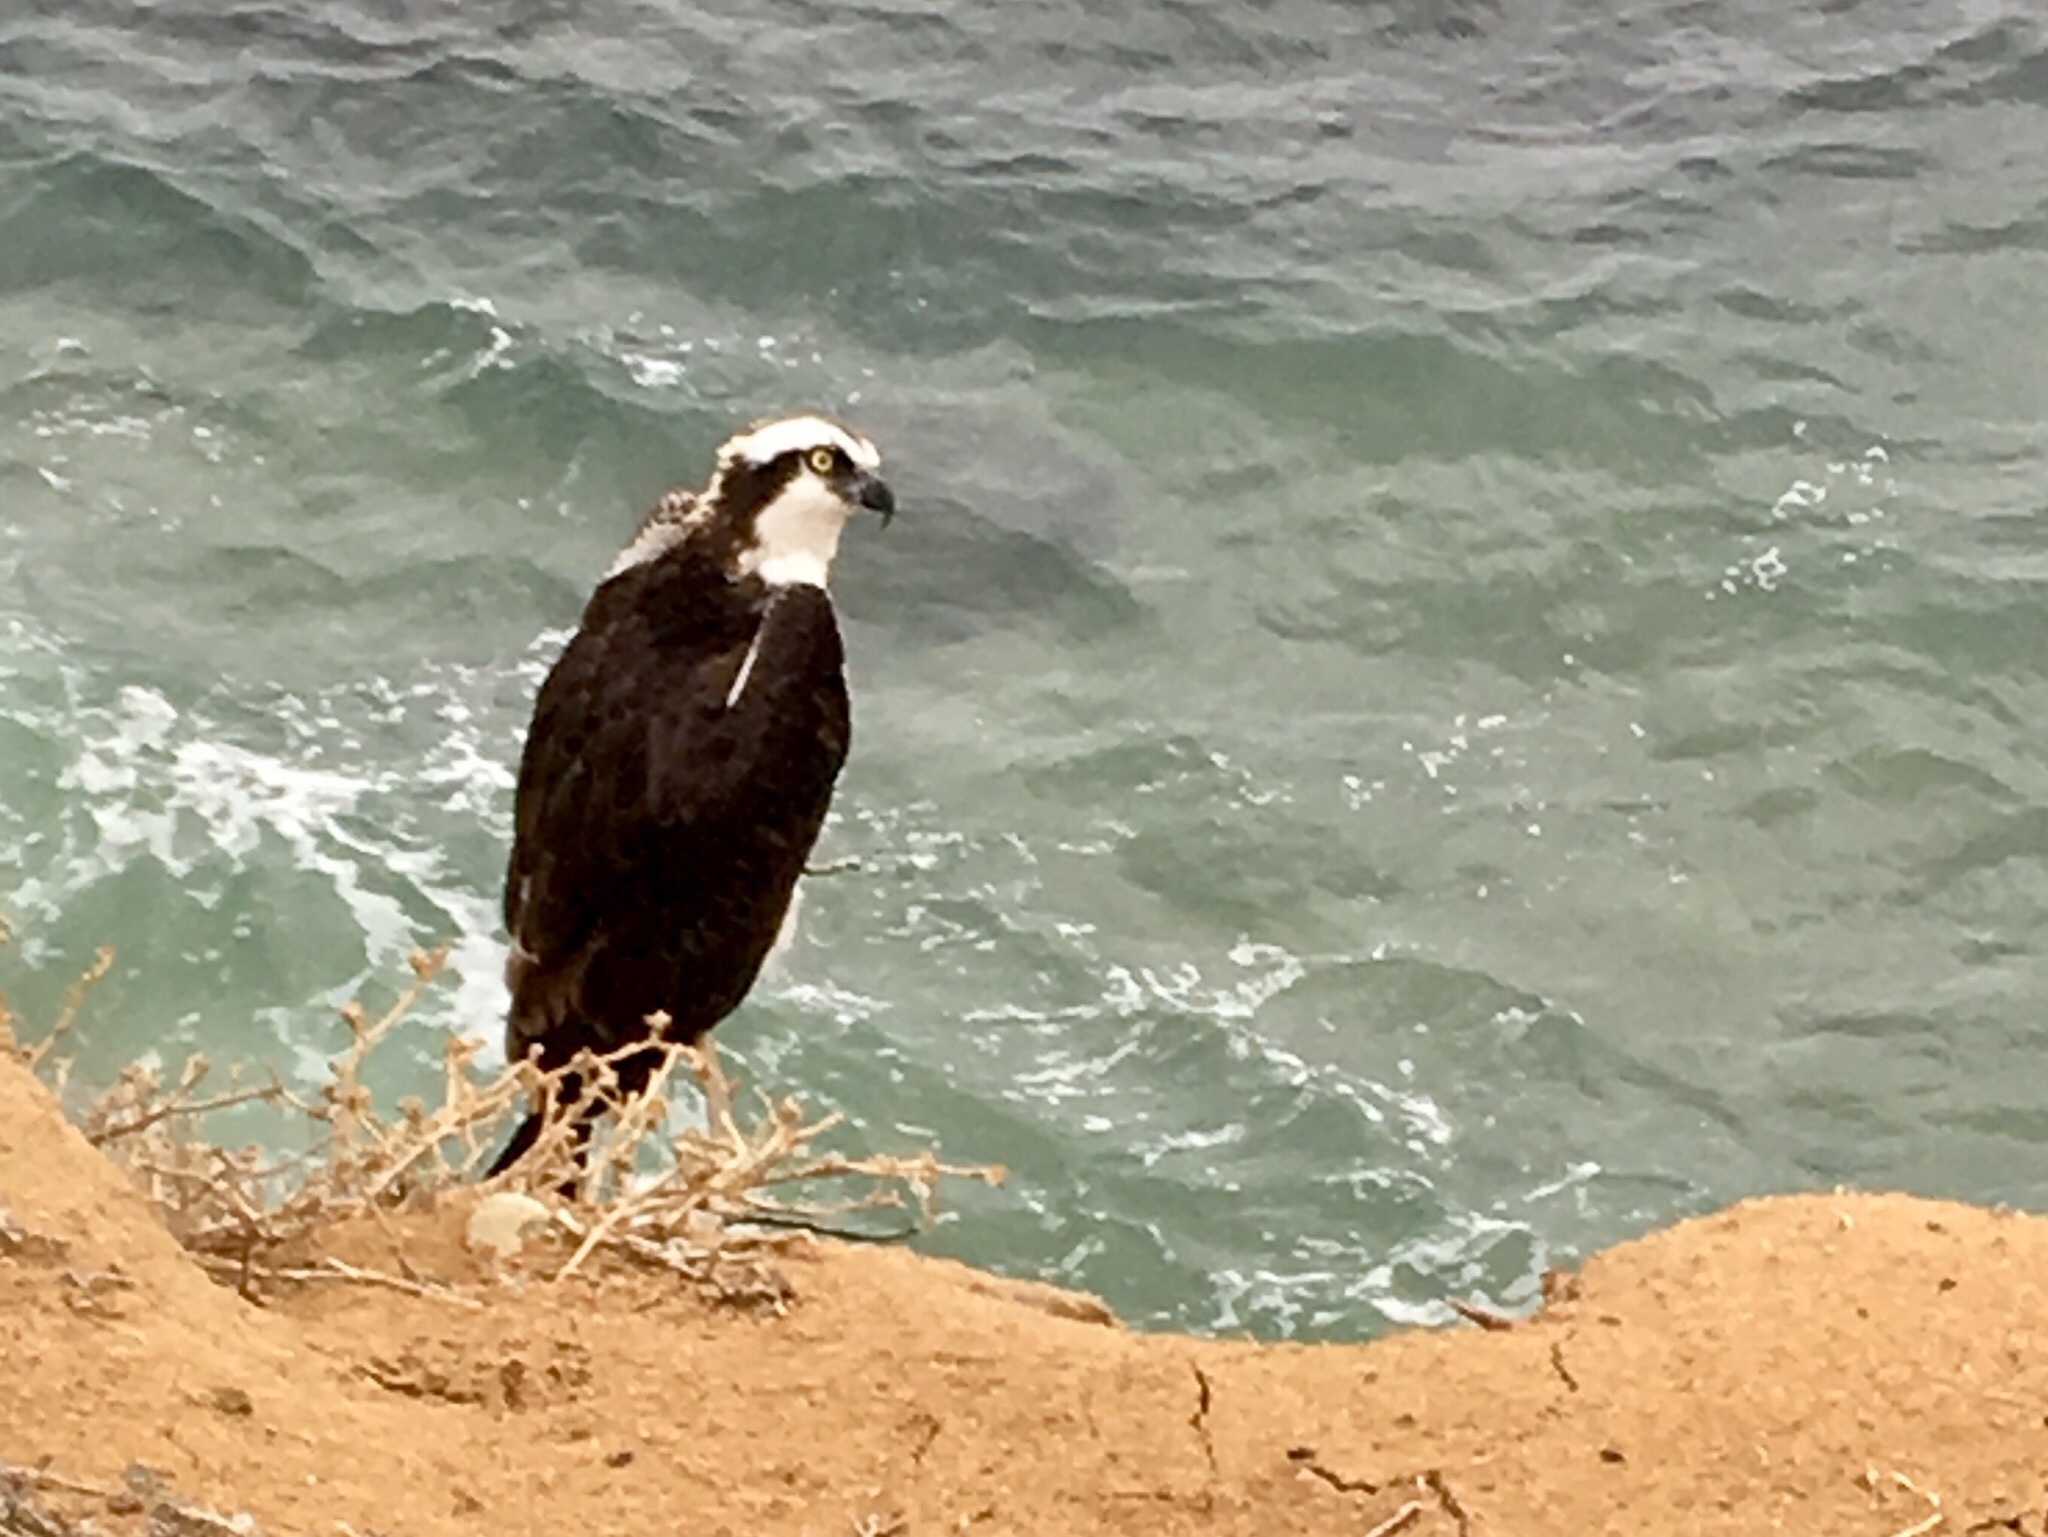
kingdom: Animalia
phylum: Chordata
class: Aves
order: Accipitriformes
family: Pandionidae
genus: Pandion
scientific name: Pandion haliaetus
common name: Osprey
